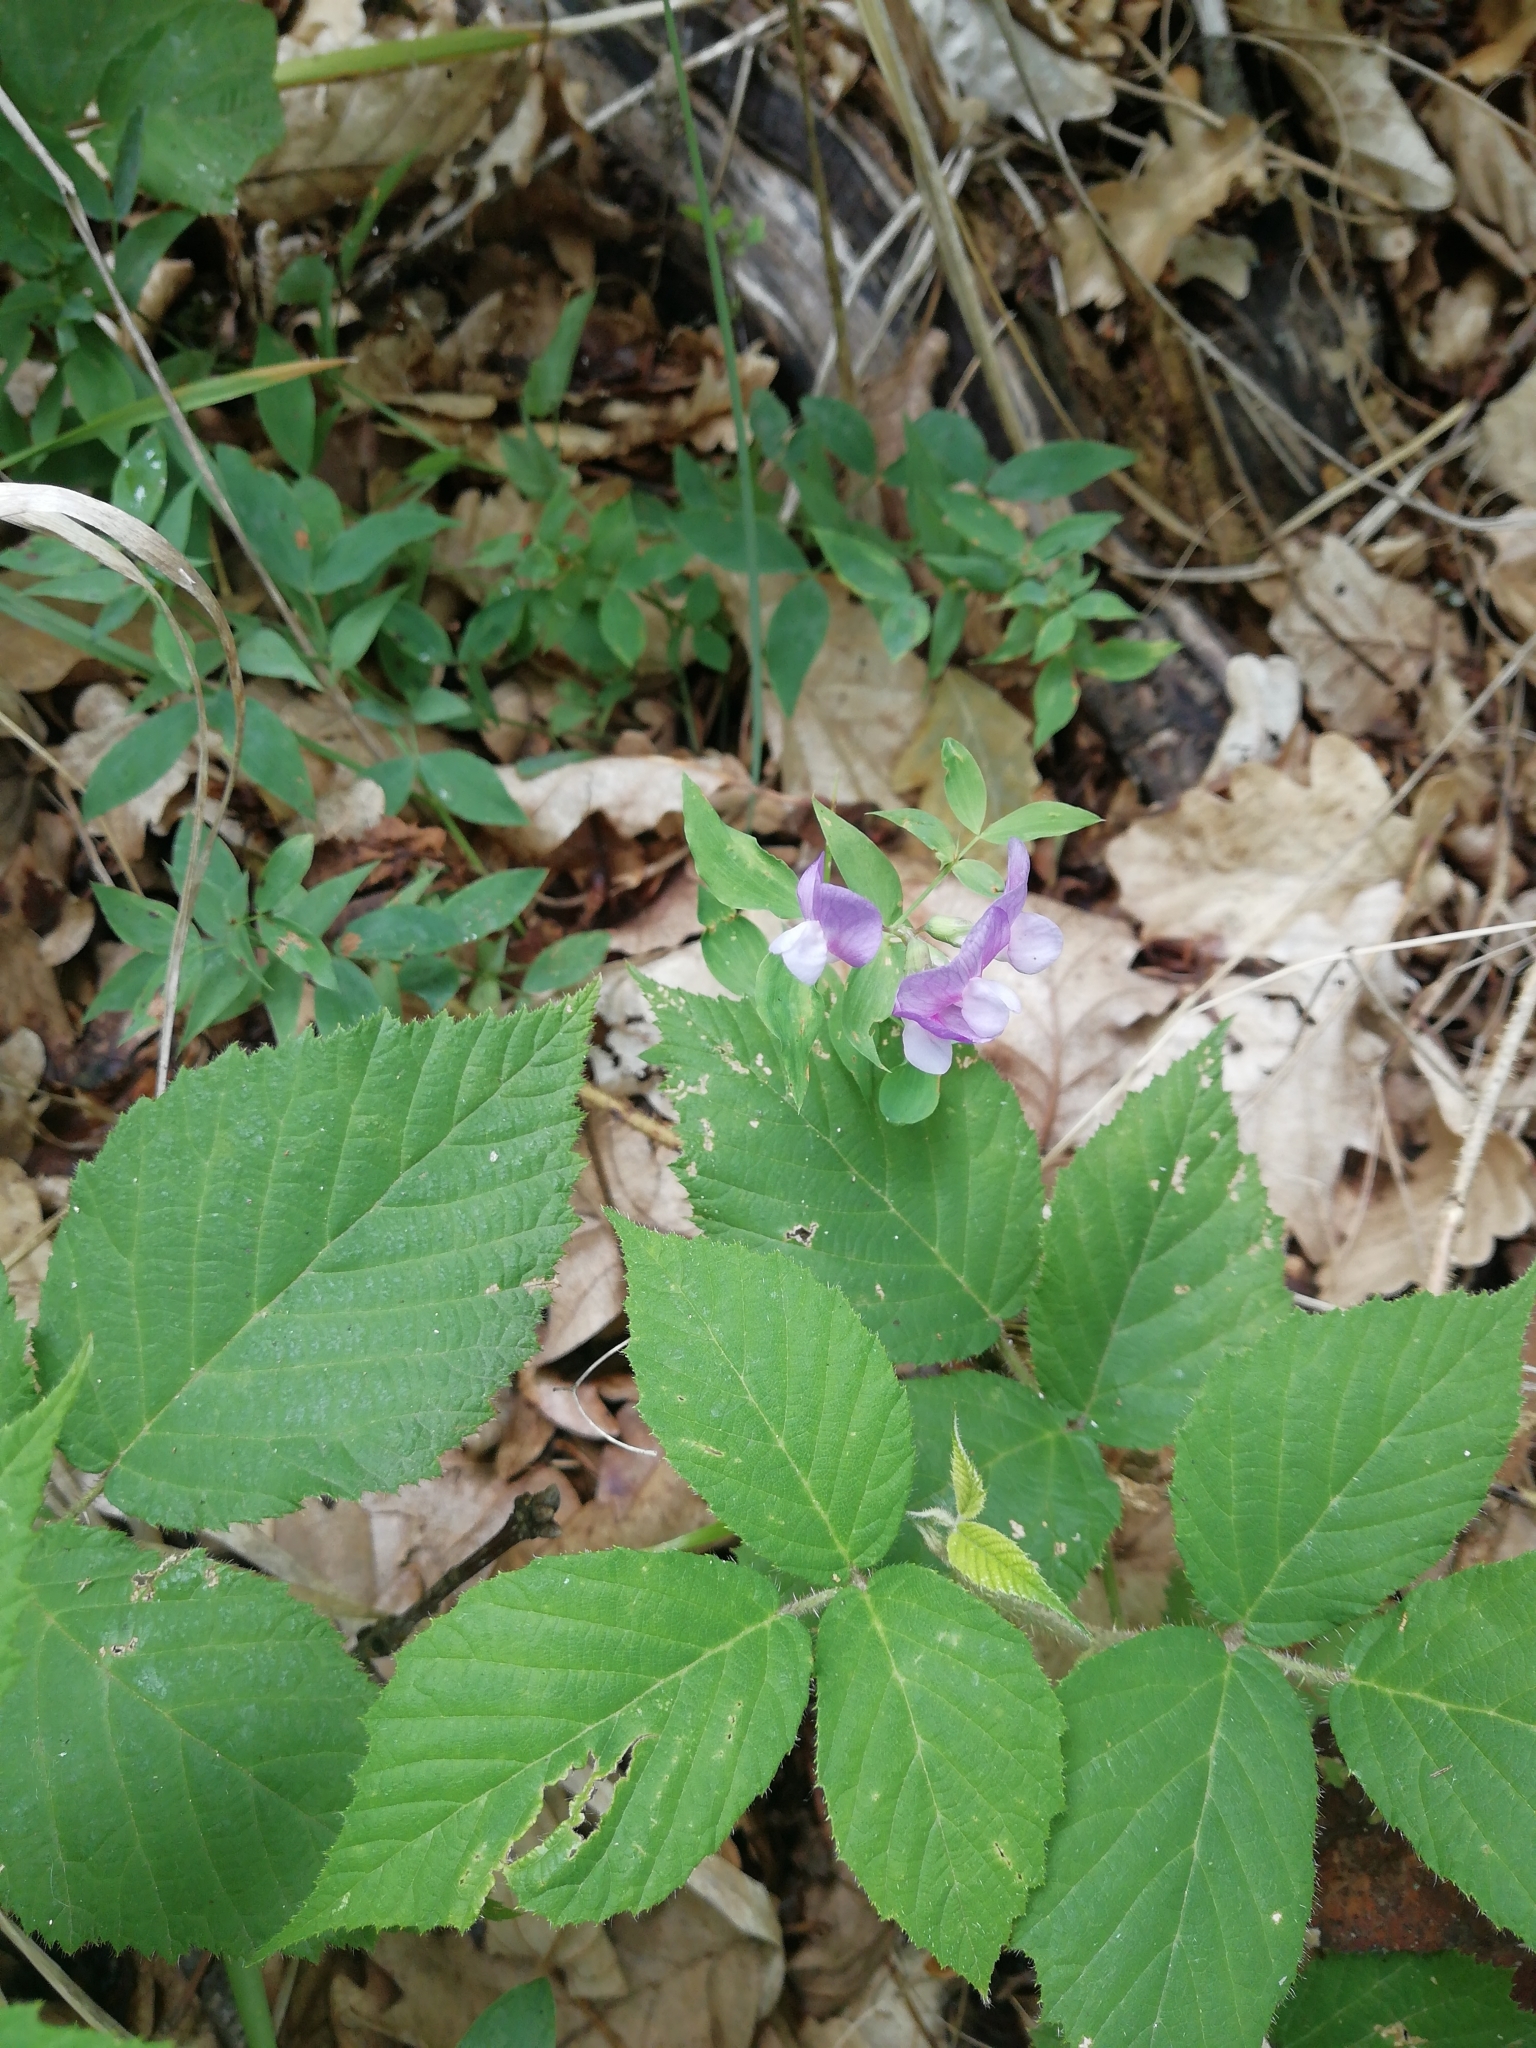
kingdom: Plantae
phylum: Tracheophyta
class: Magnoliopsida
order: Fabales
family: Fabaceae
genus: Lathyrus
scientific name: Lathyrus laxiflorus
